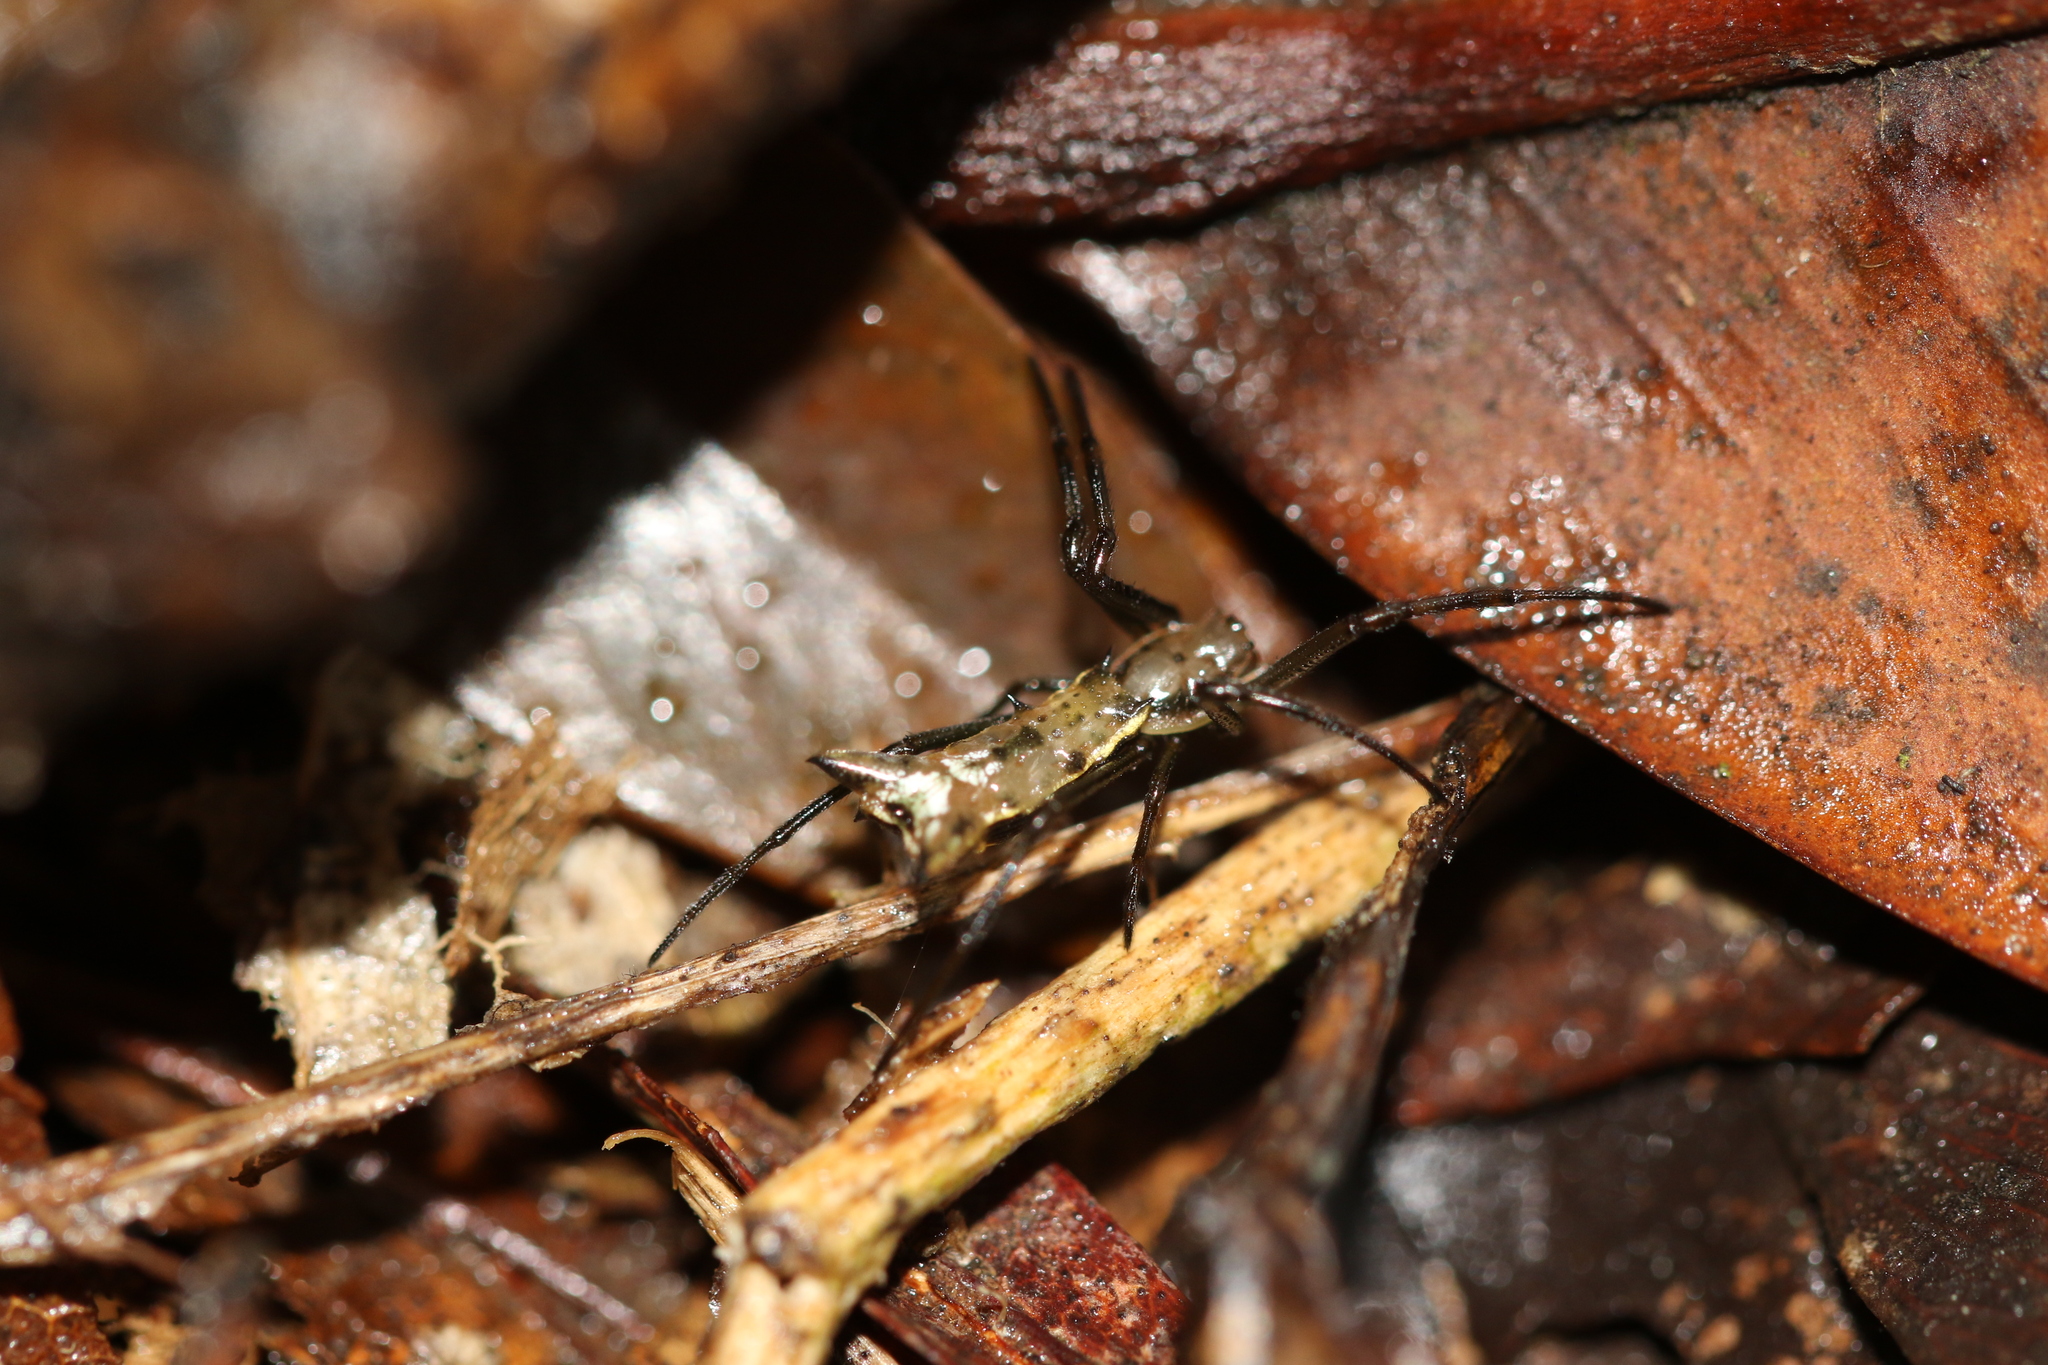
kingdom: Animalia
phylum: Arthropoda
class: Arachnida
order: Araneae
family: Araneidae
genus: Micrathena
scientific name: Micrathena crassispina
